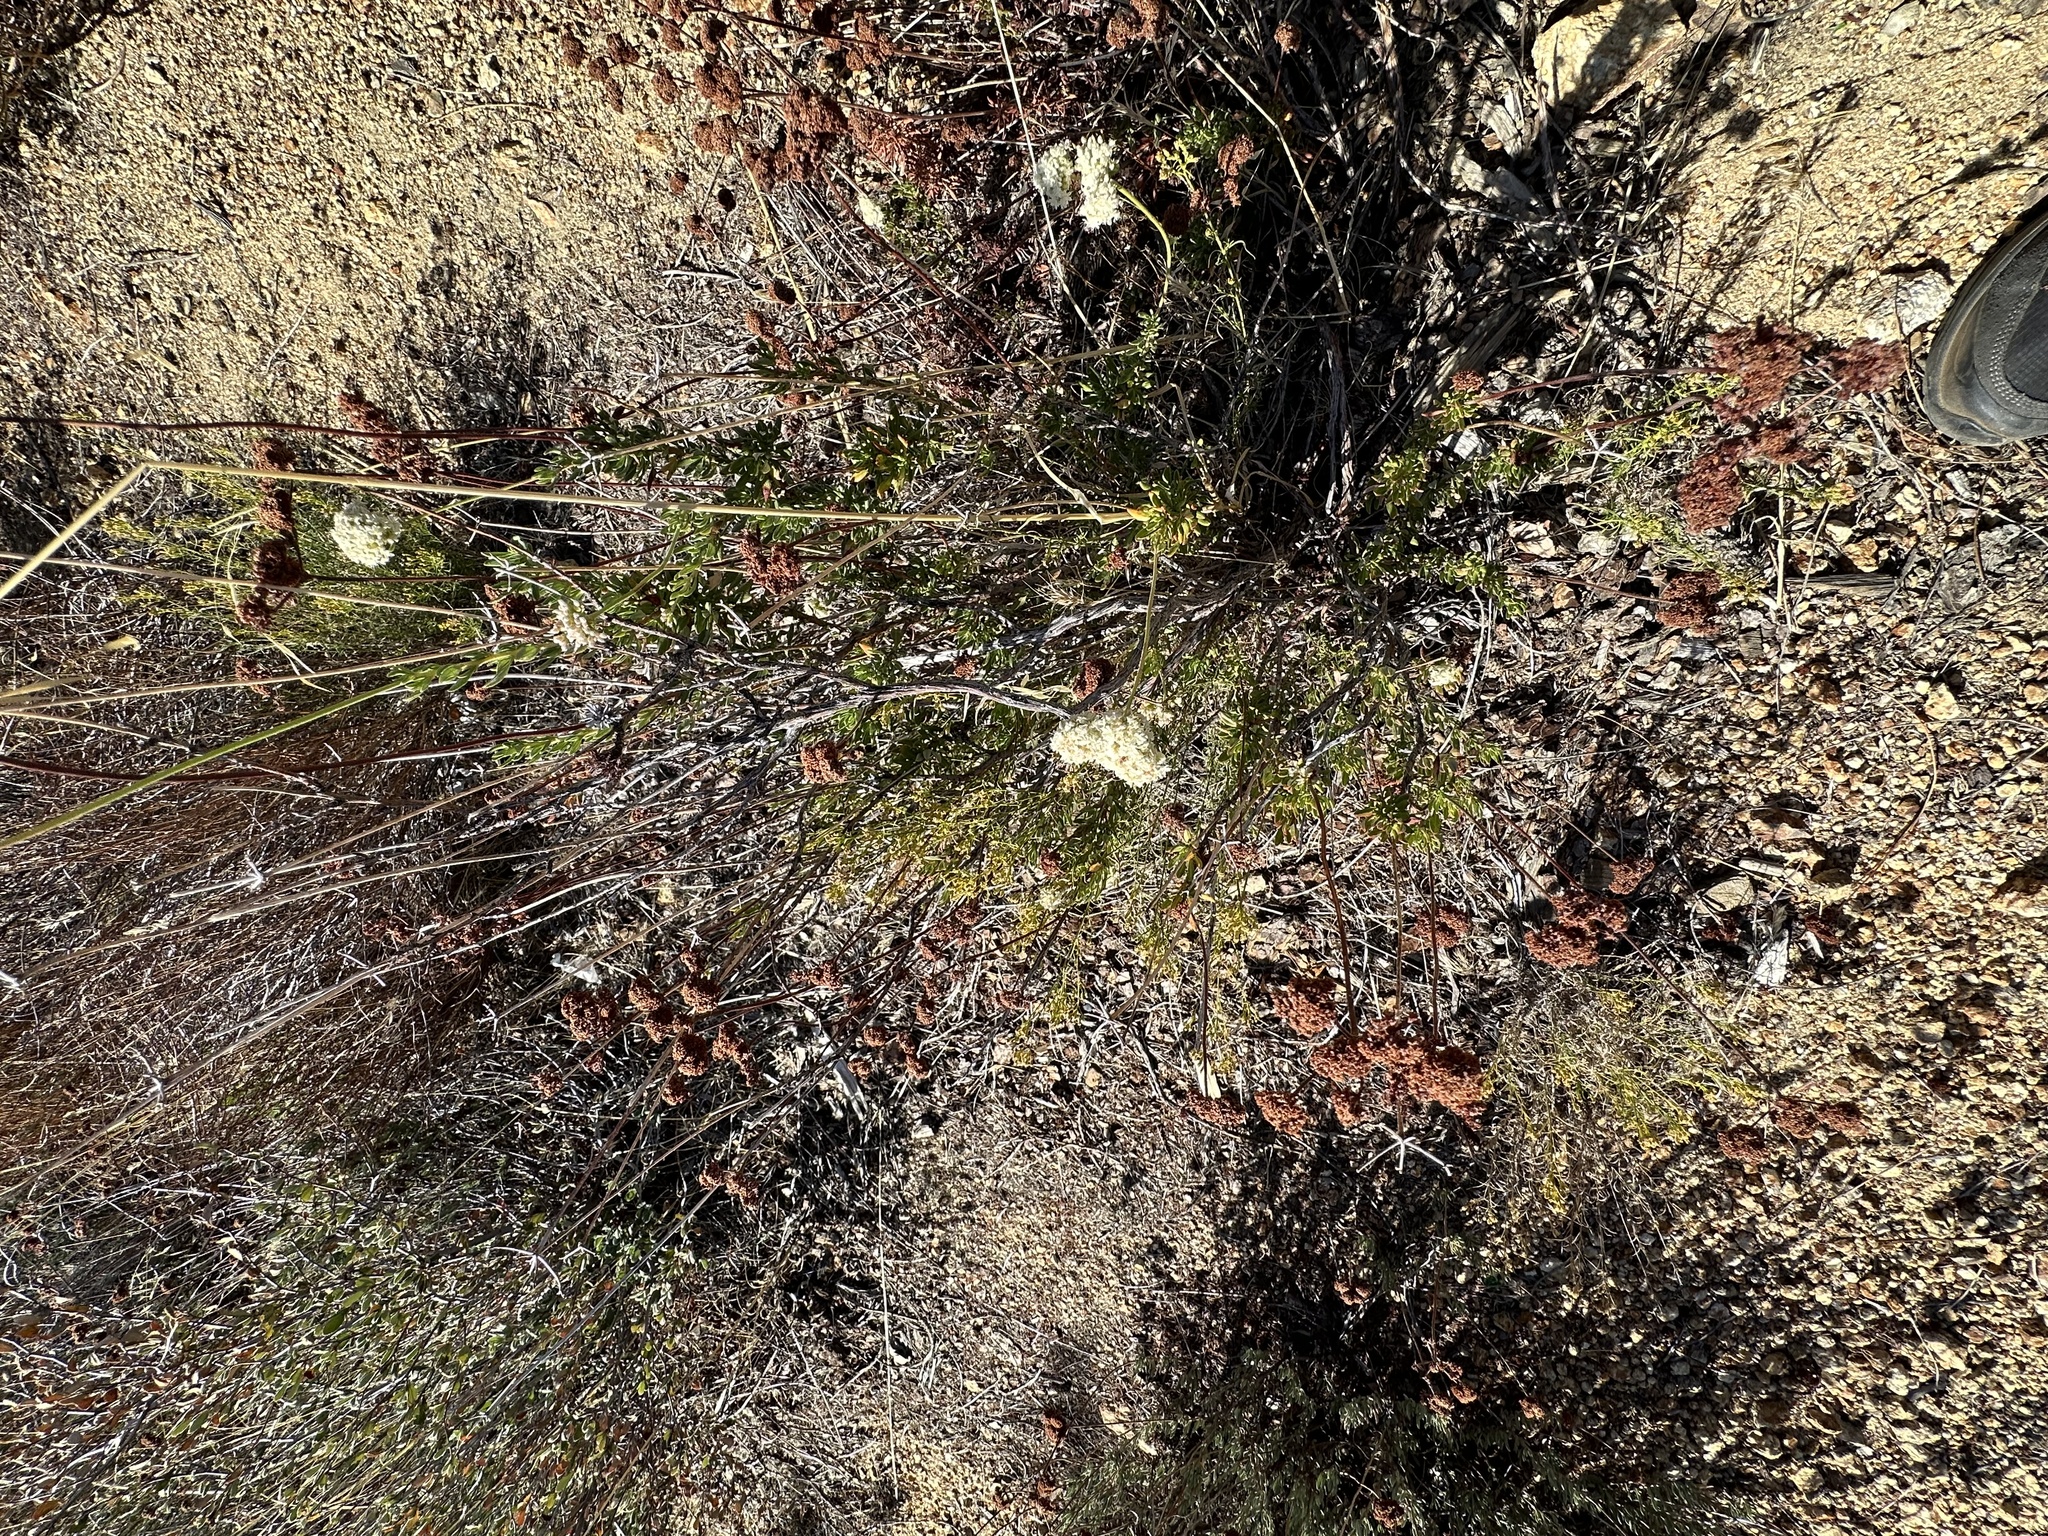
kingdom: Plantae
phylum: Tracheophyta
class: Magnoliopsida
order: Caryophyllales
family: Polygonaceae
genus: Eriogonum
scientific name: Eriogonum fasciculatum
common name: California wild buckwheat
